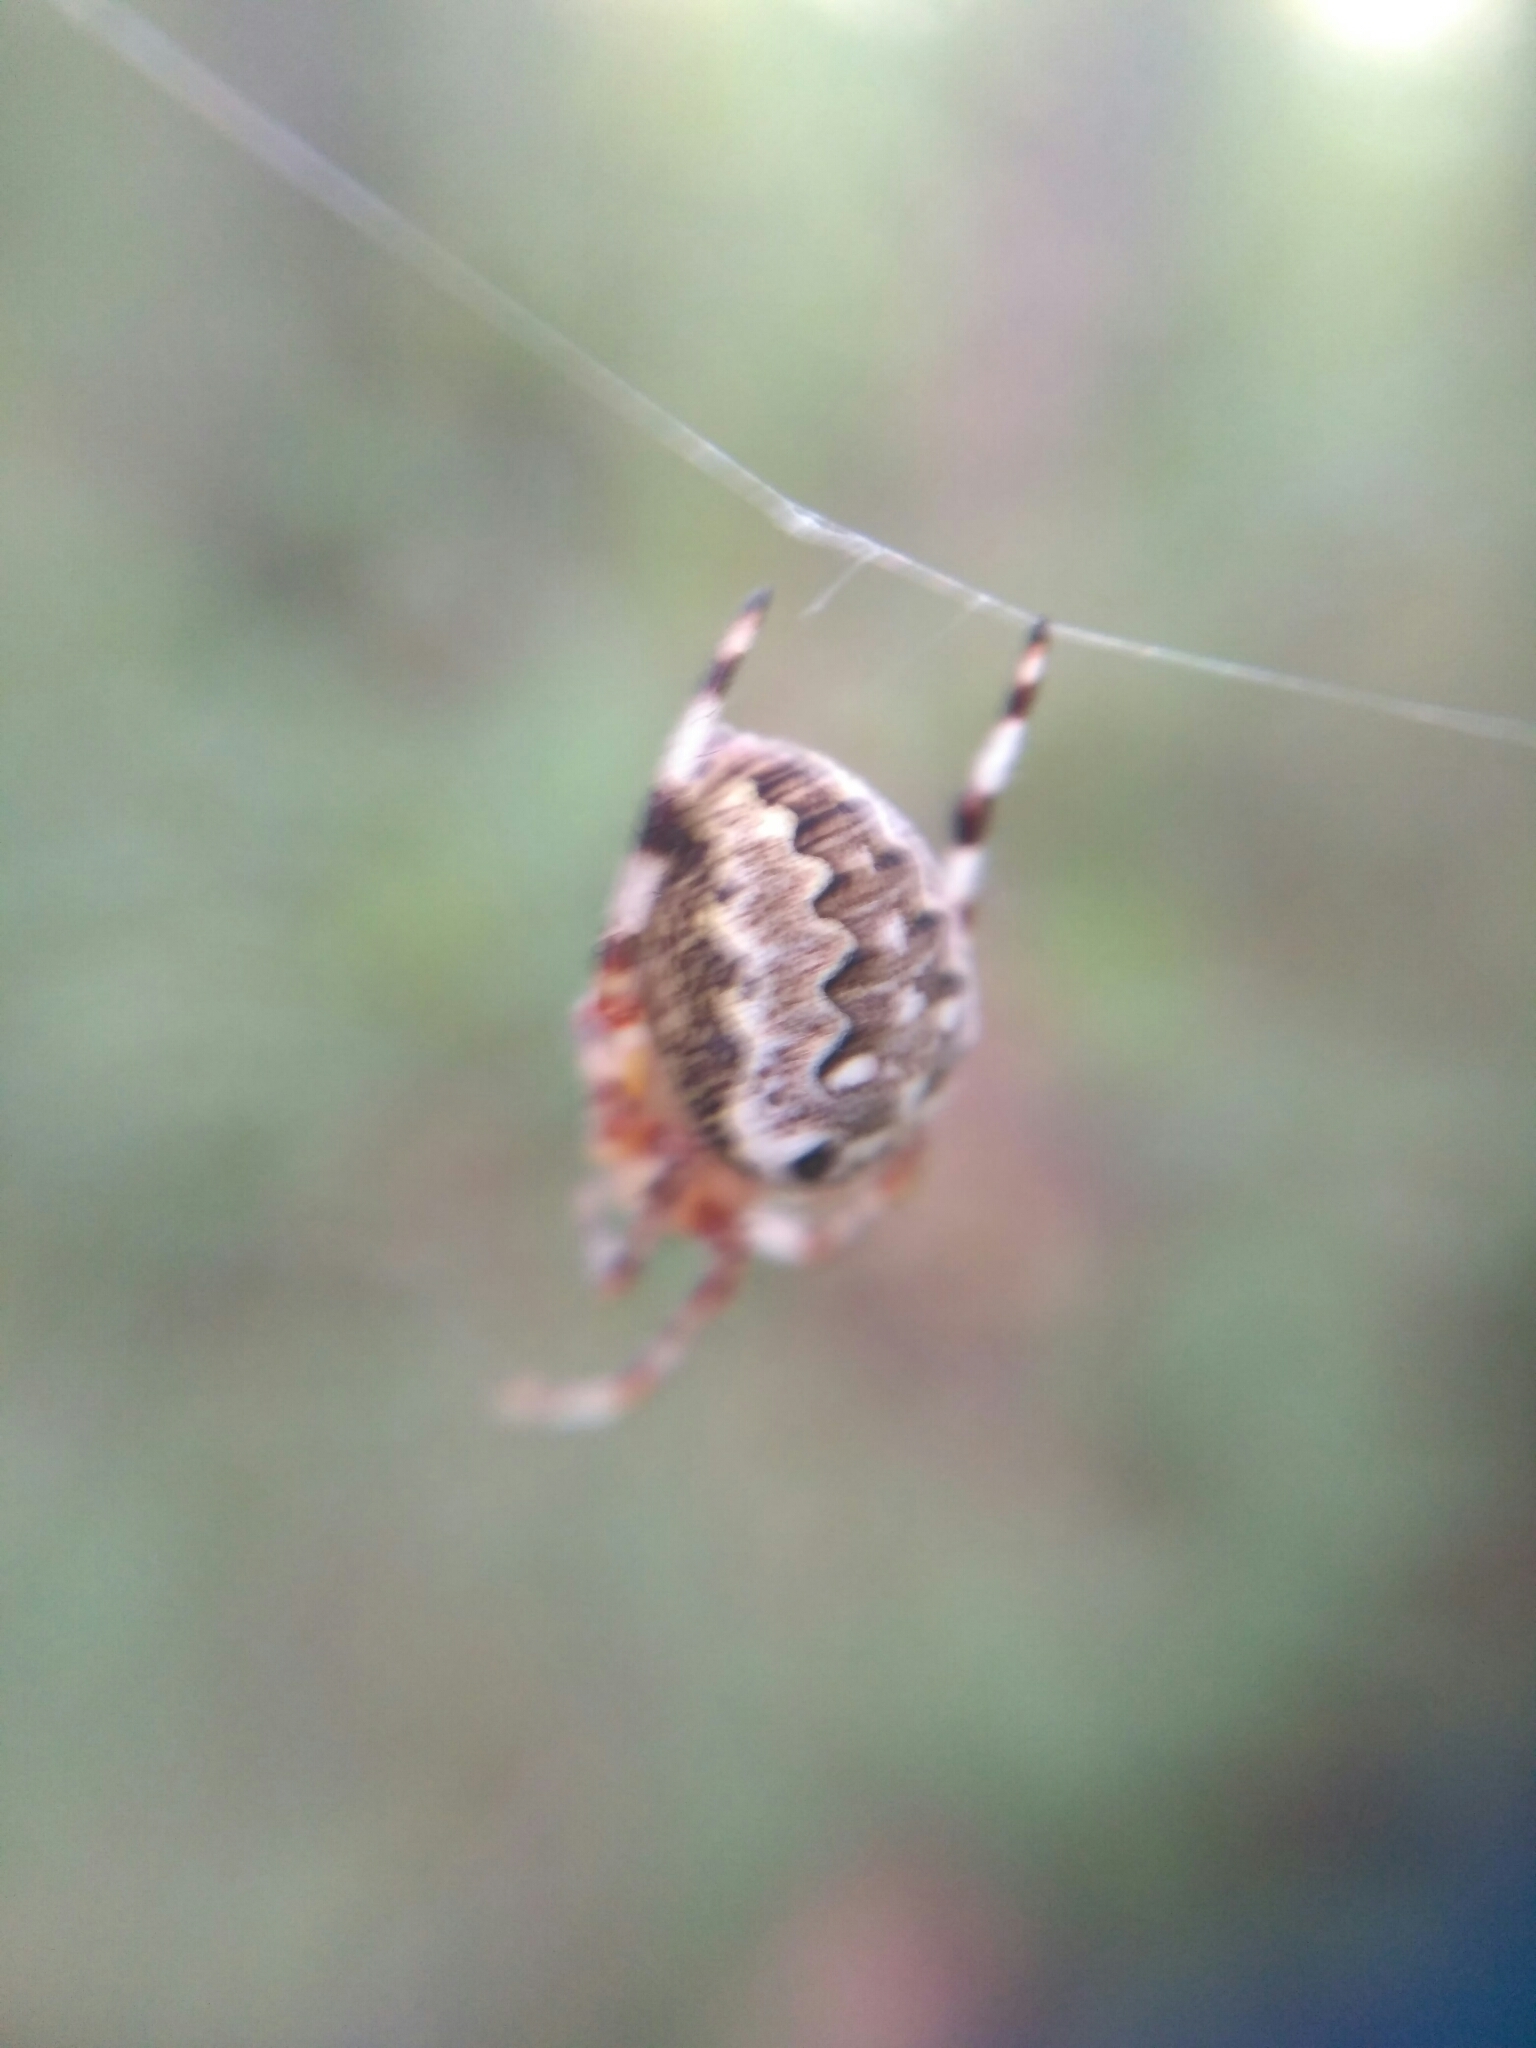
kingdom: Animalia
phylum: Arthropoda
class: Arachnida
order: Araneae
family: Araneidae
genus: Araneus
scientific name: Araneus diadematus
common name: Cross orbweaver
